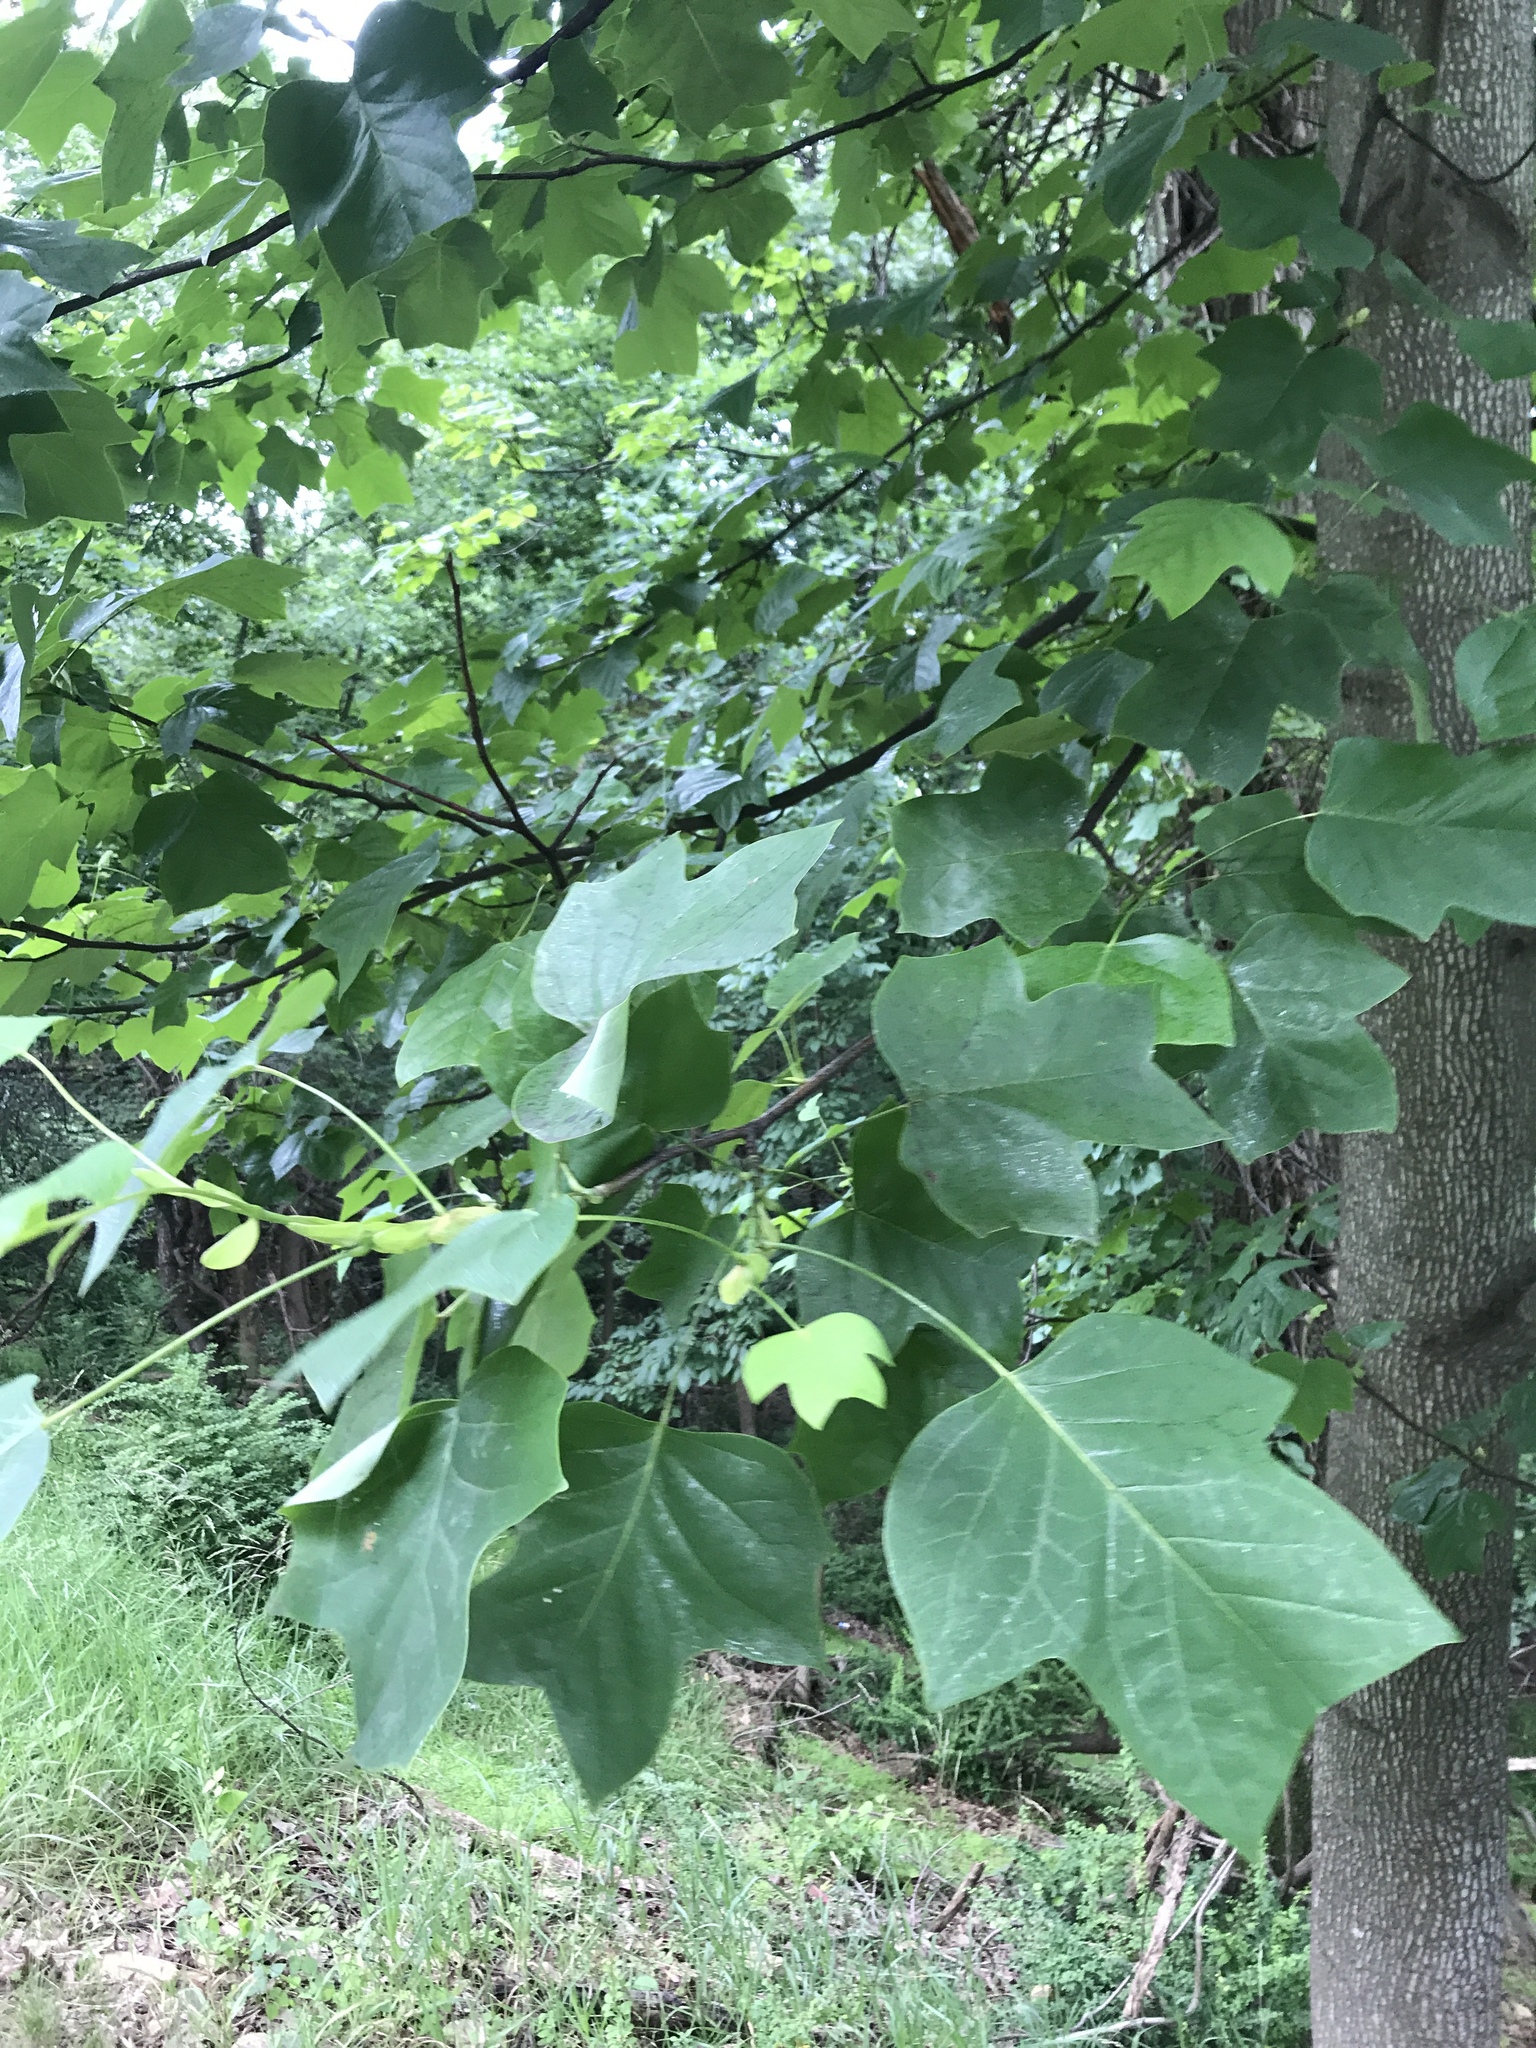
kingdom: Plantae
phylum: Tracheophyta
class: Magnoliopsida
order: Magnoliales
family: Magnoliaceae
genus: Liriodendron
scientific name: Liriodendron tulipifera
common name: Tulip tree
